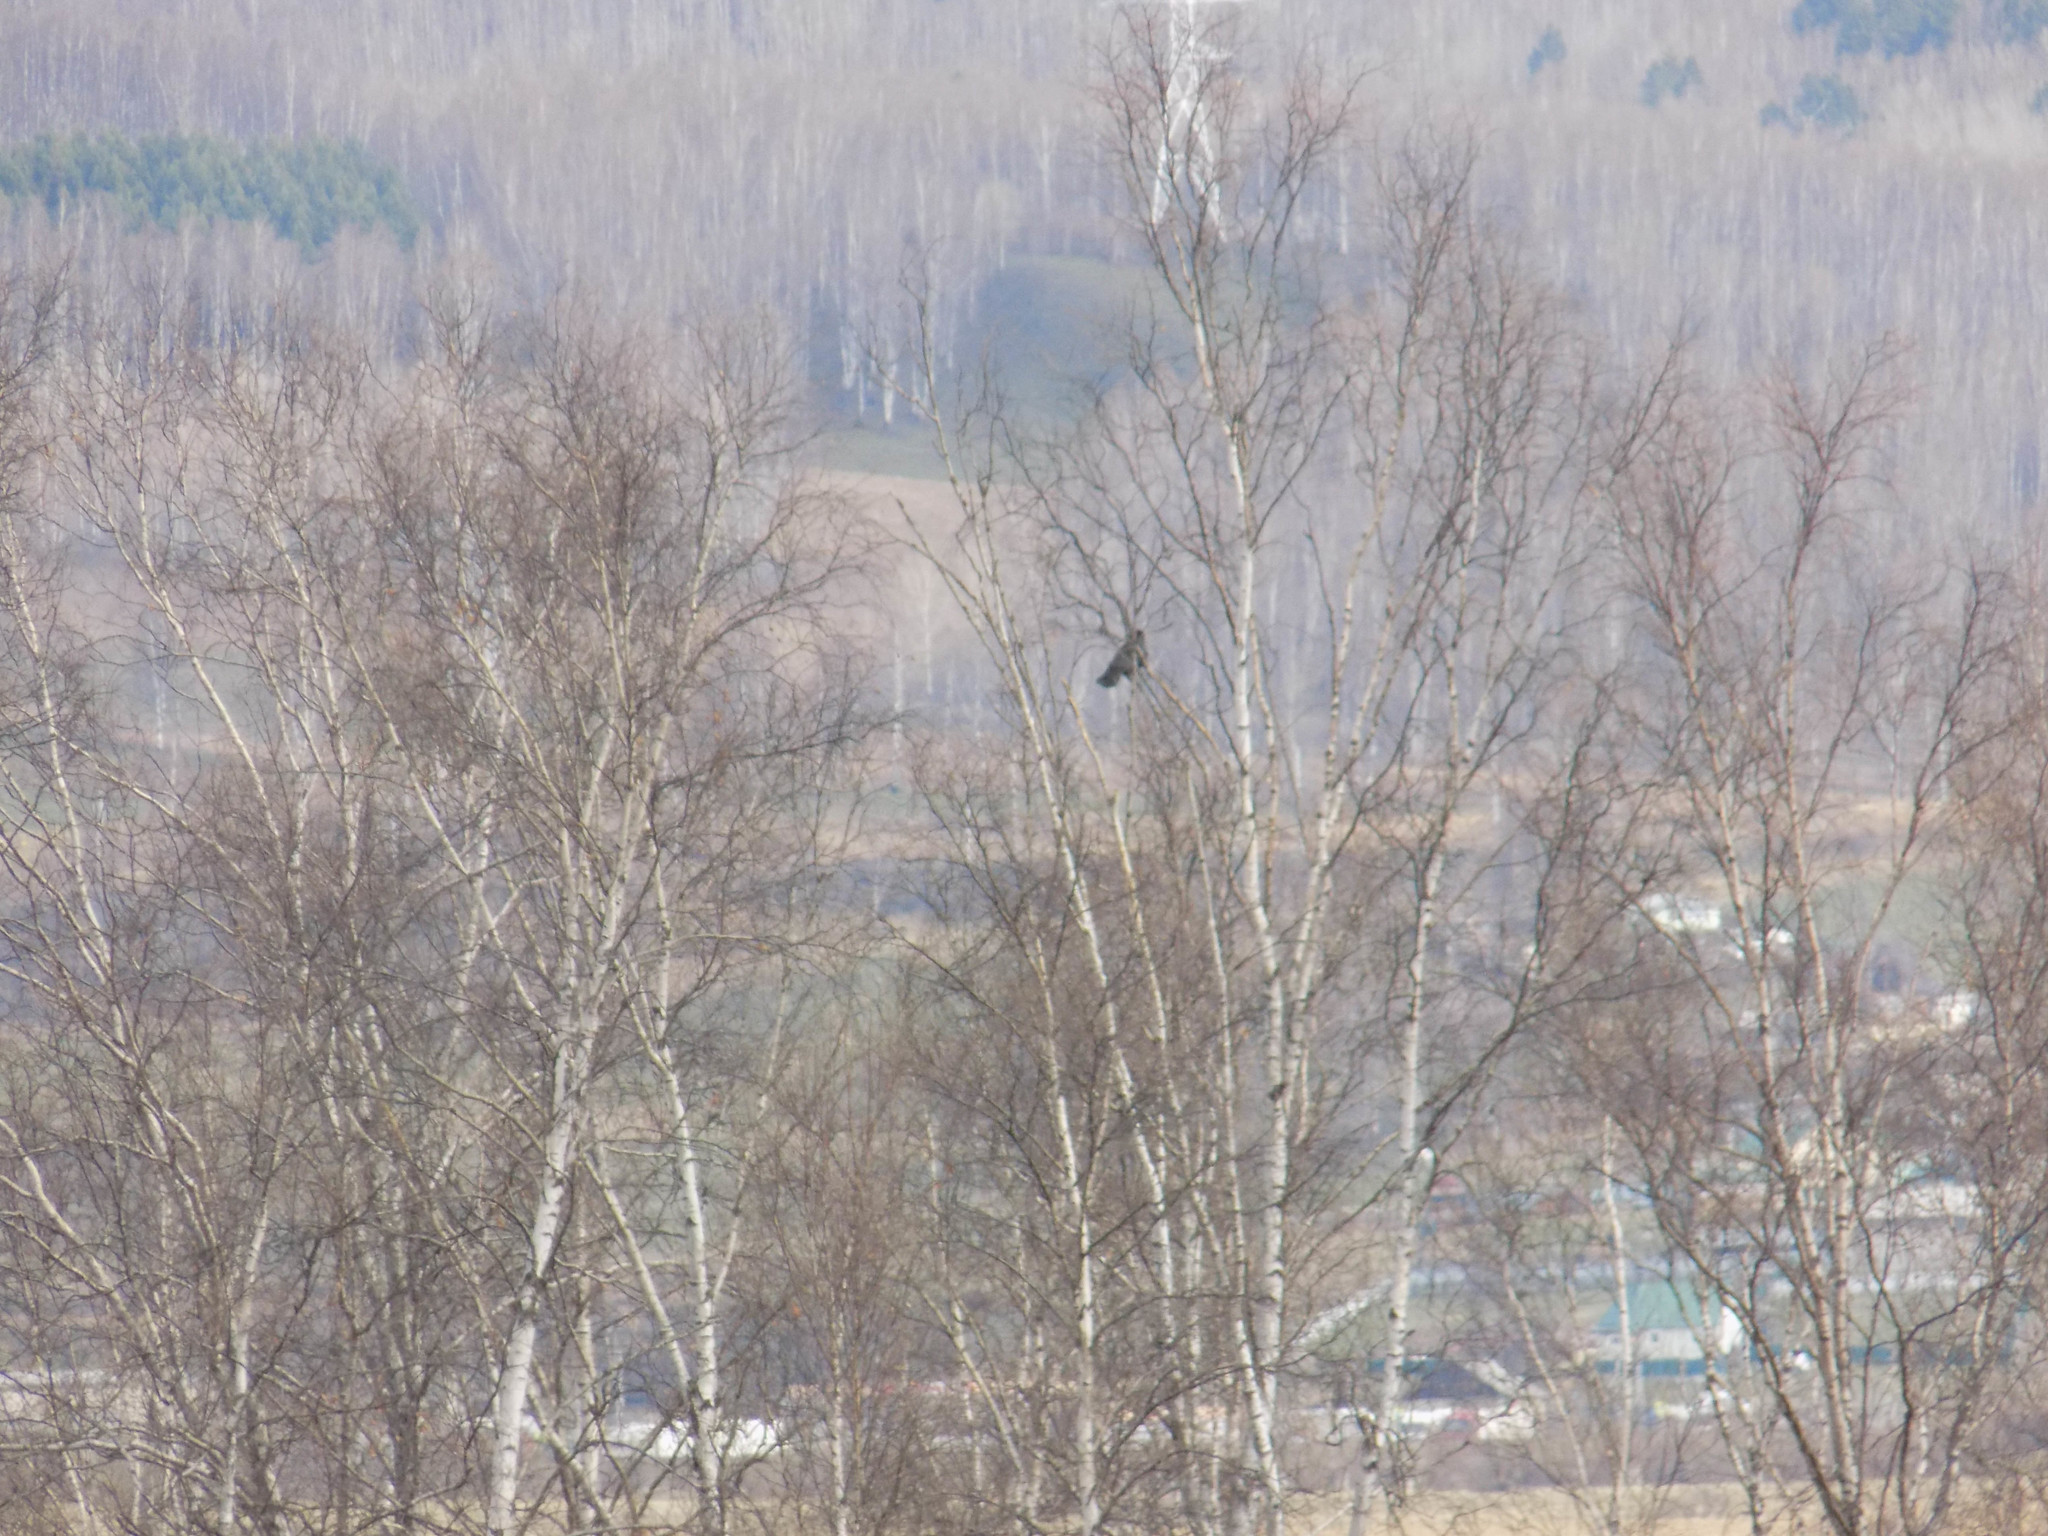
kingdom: Animalia
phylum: Chordata
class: Aves
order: Passeriformes
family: Corvidae
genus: Corvus
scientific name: Corvus corone
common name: Carrion crow
